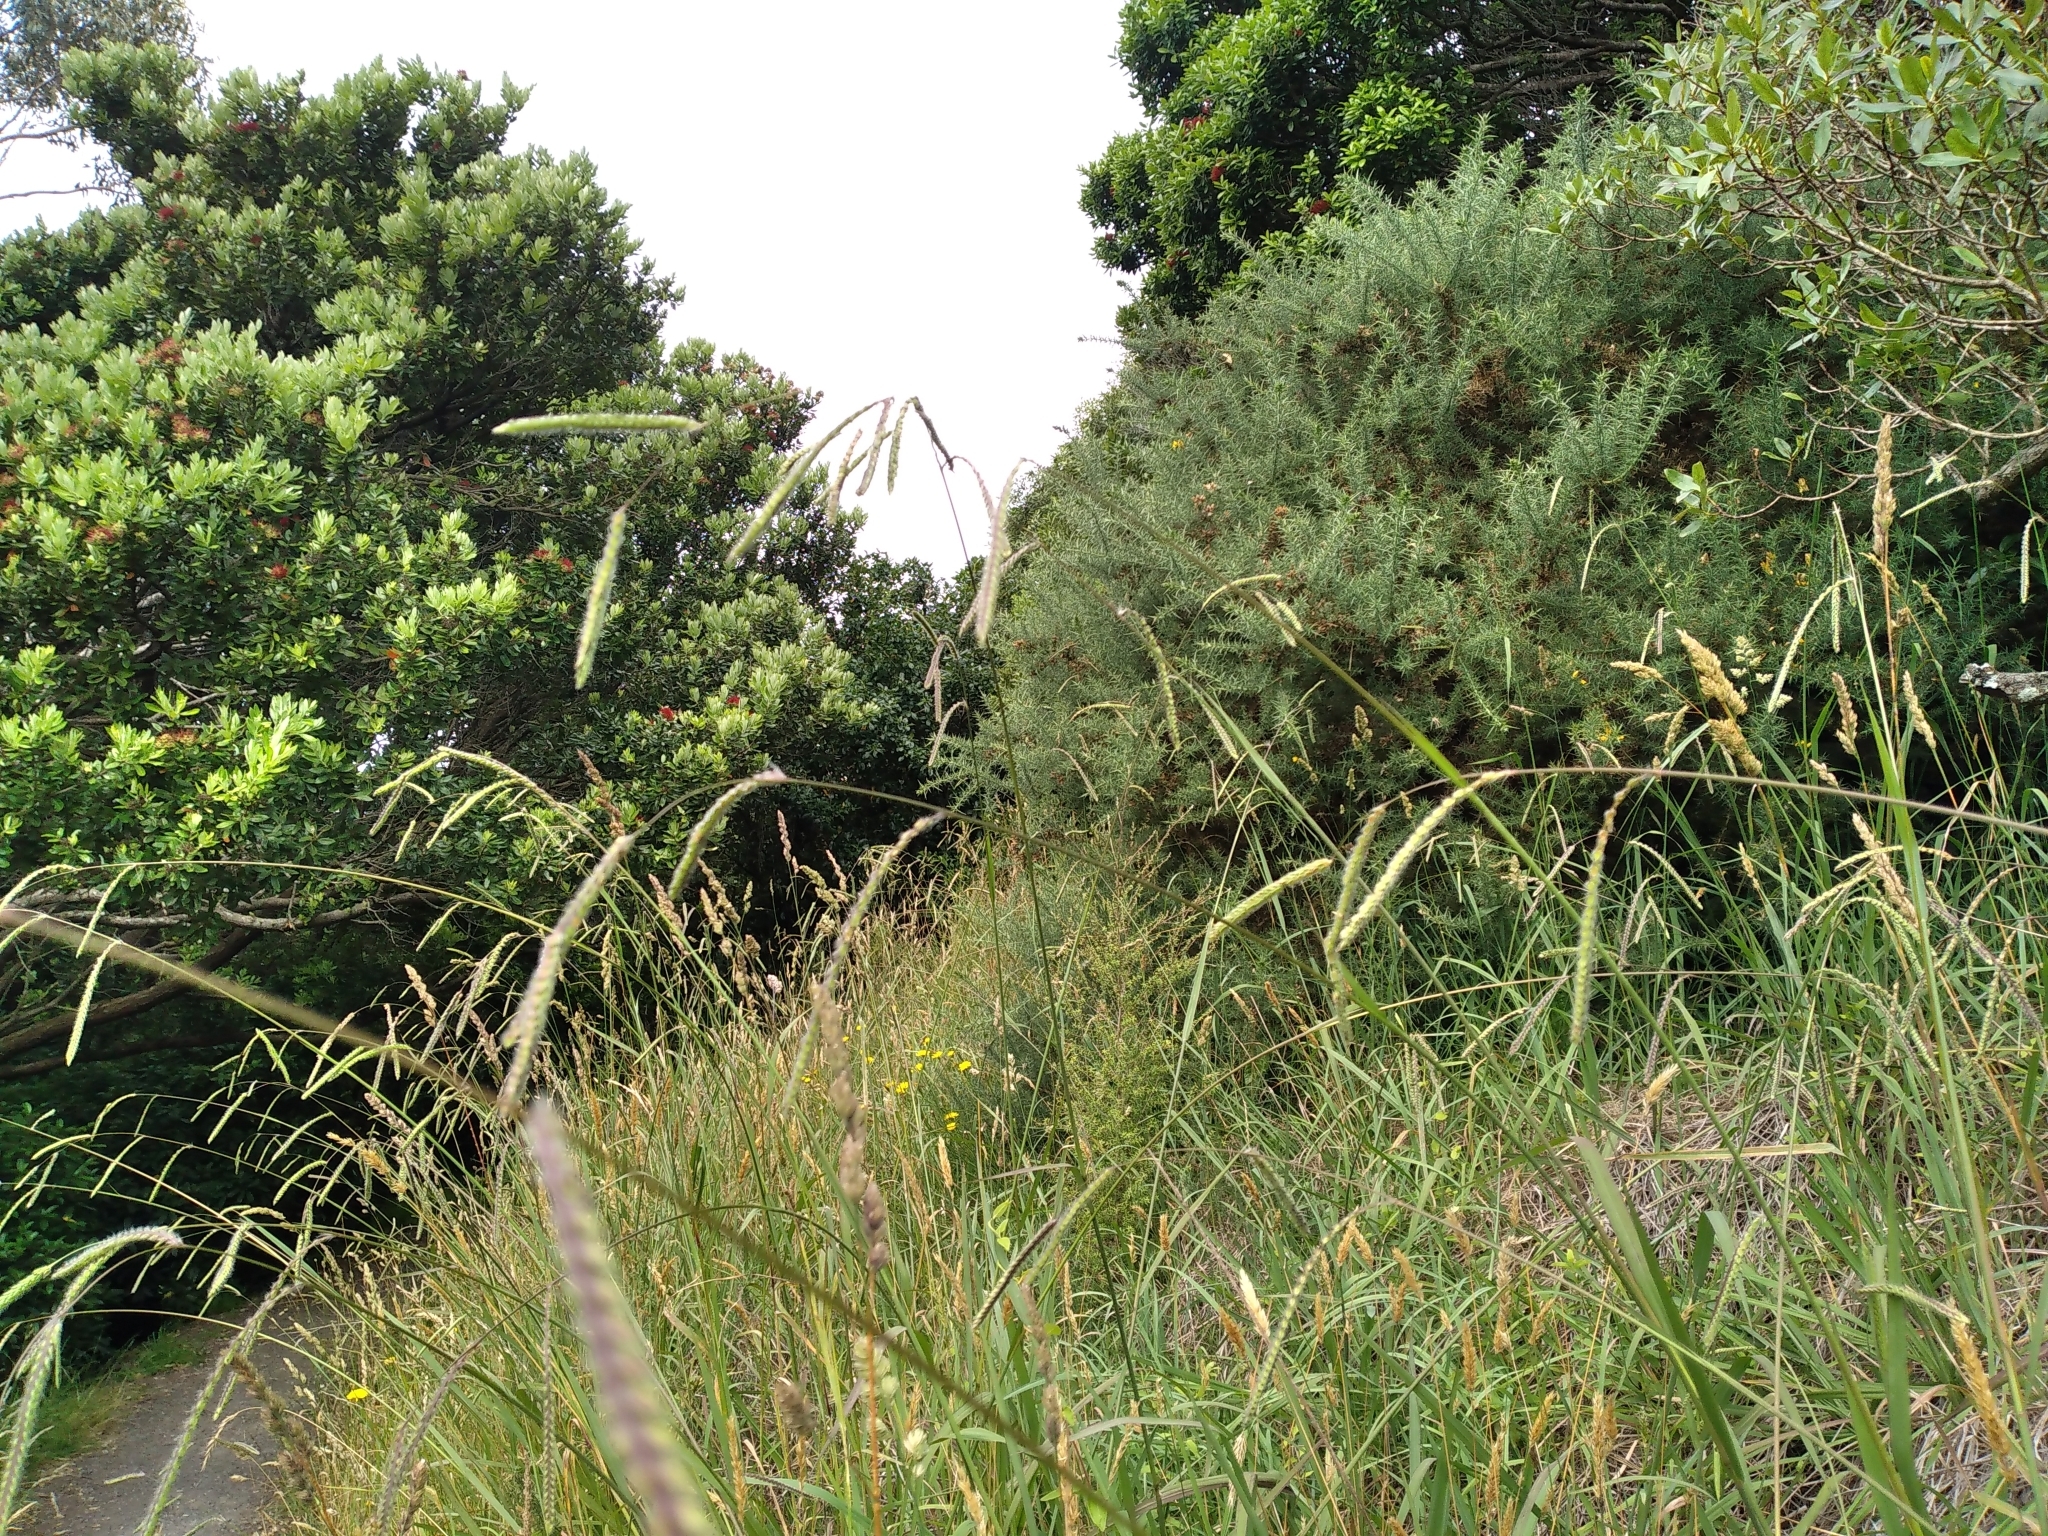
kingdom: Plantae
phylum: Tracheophyta
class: Liliopsida
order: Poales
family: Poaceae
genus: Paspalum
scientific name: Paspalum dilatatum
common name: Dallisgrass
